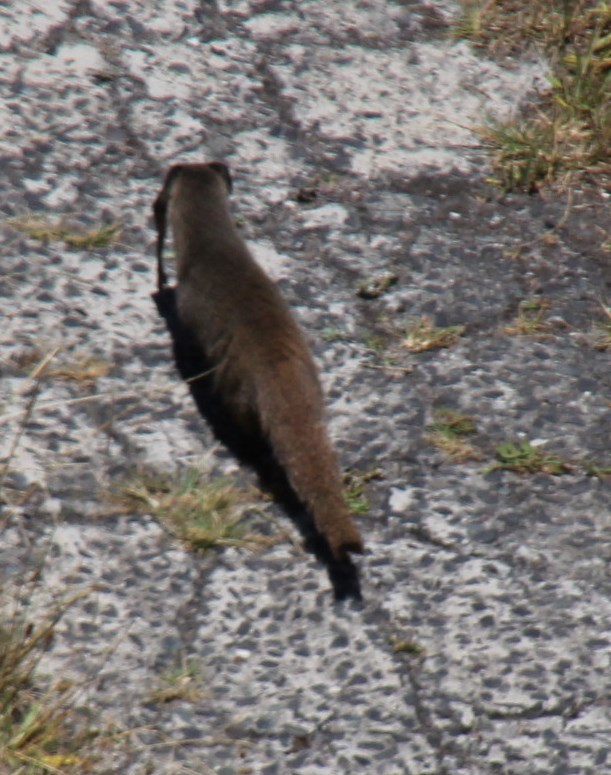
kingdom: Animalia
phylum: Chordata
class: Mammalia
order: Carnivora
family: Herpestidae
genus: Galerella
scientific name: Galerella pulverulenta
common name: Cape gray mongoose
